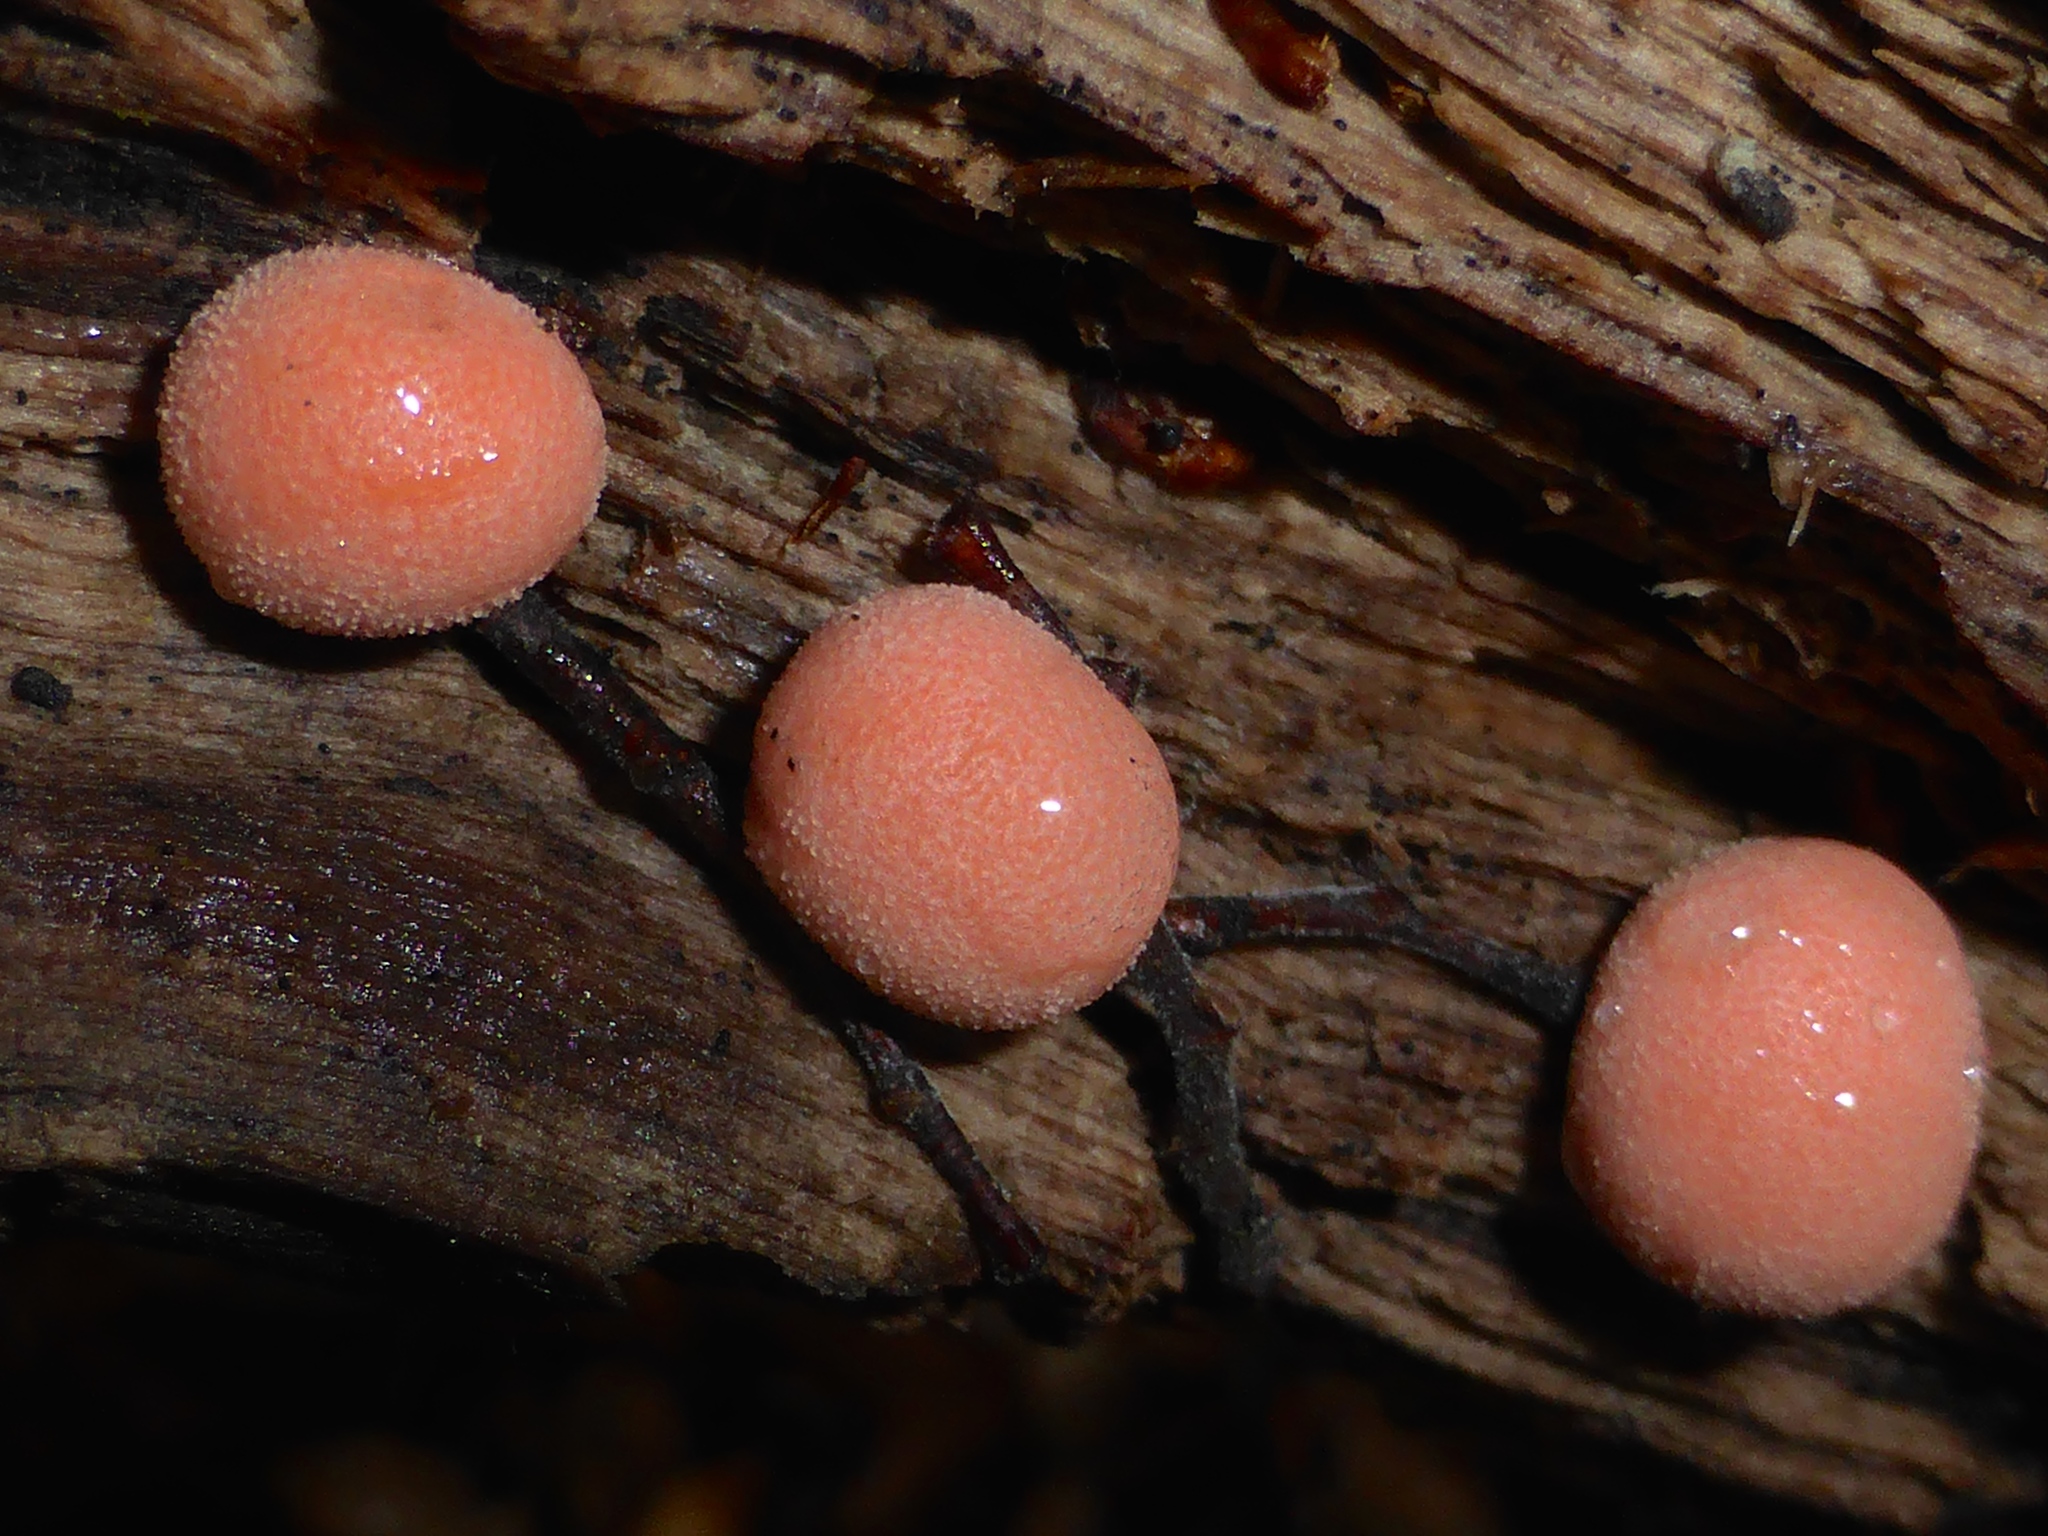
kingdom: Protozoa
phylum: Mycetozoa
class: Myxomycetes
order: Cribrariales
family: Tubiferaceae
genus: Lycogala
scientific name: Lycogala epidendrum
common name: Wolf's milk
